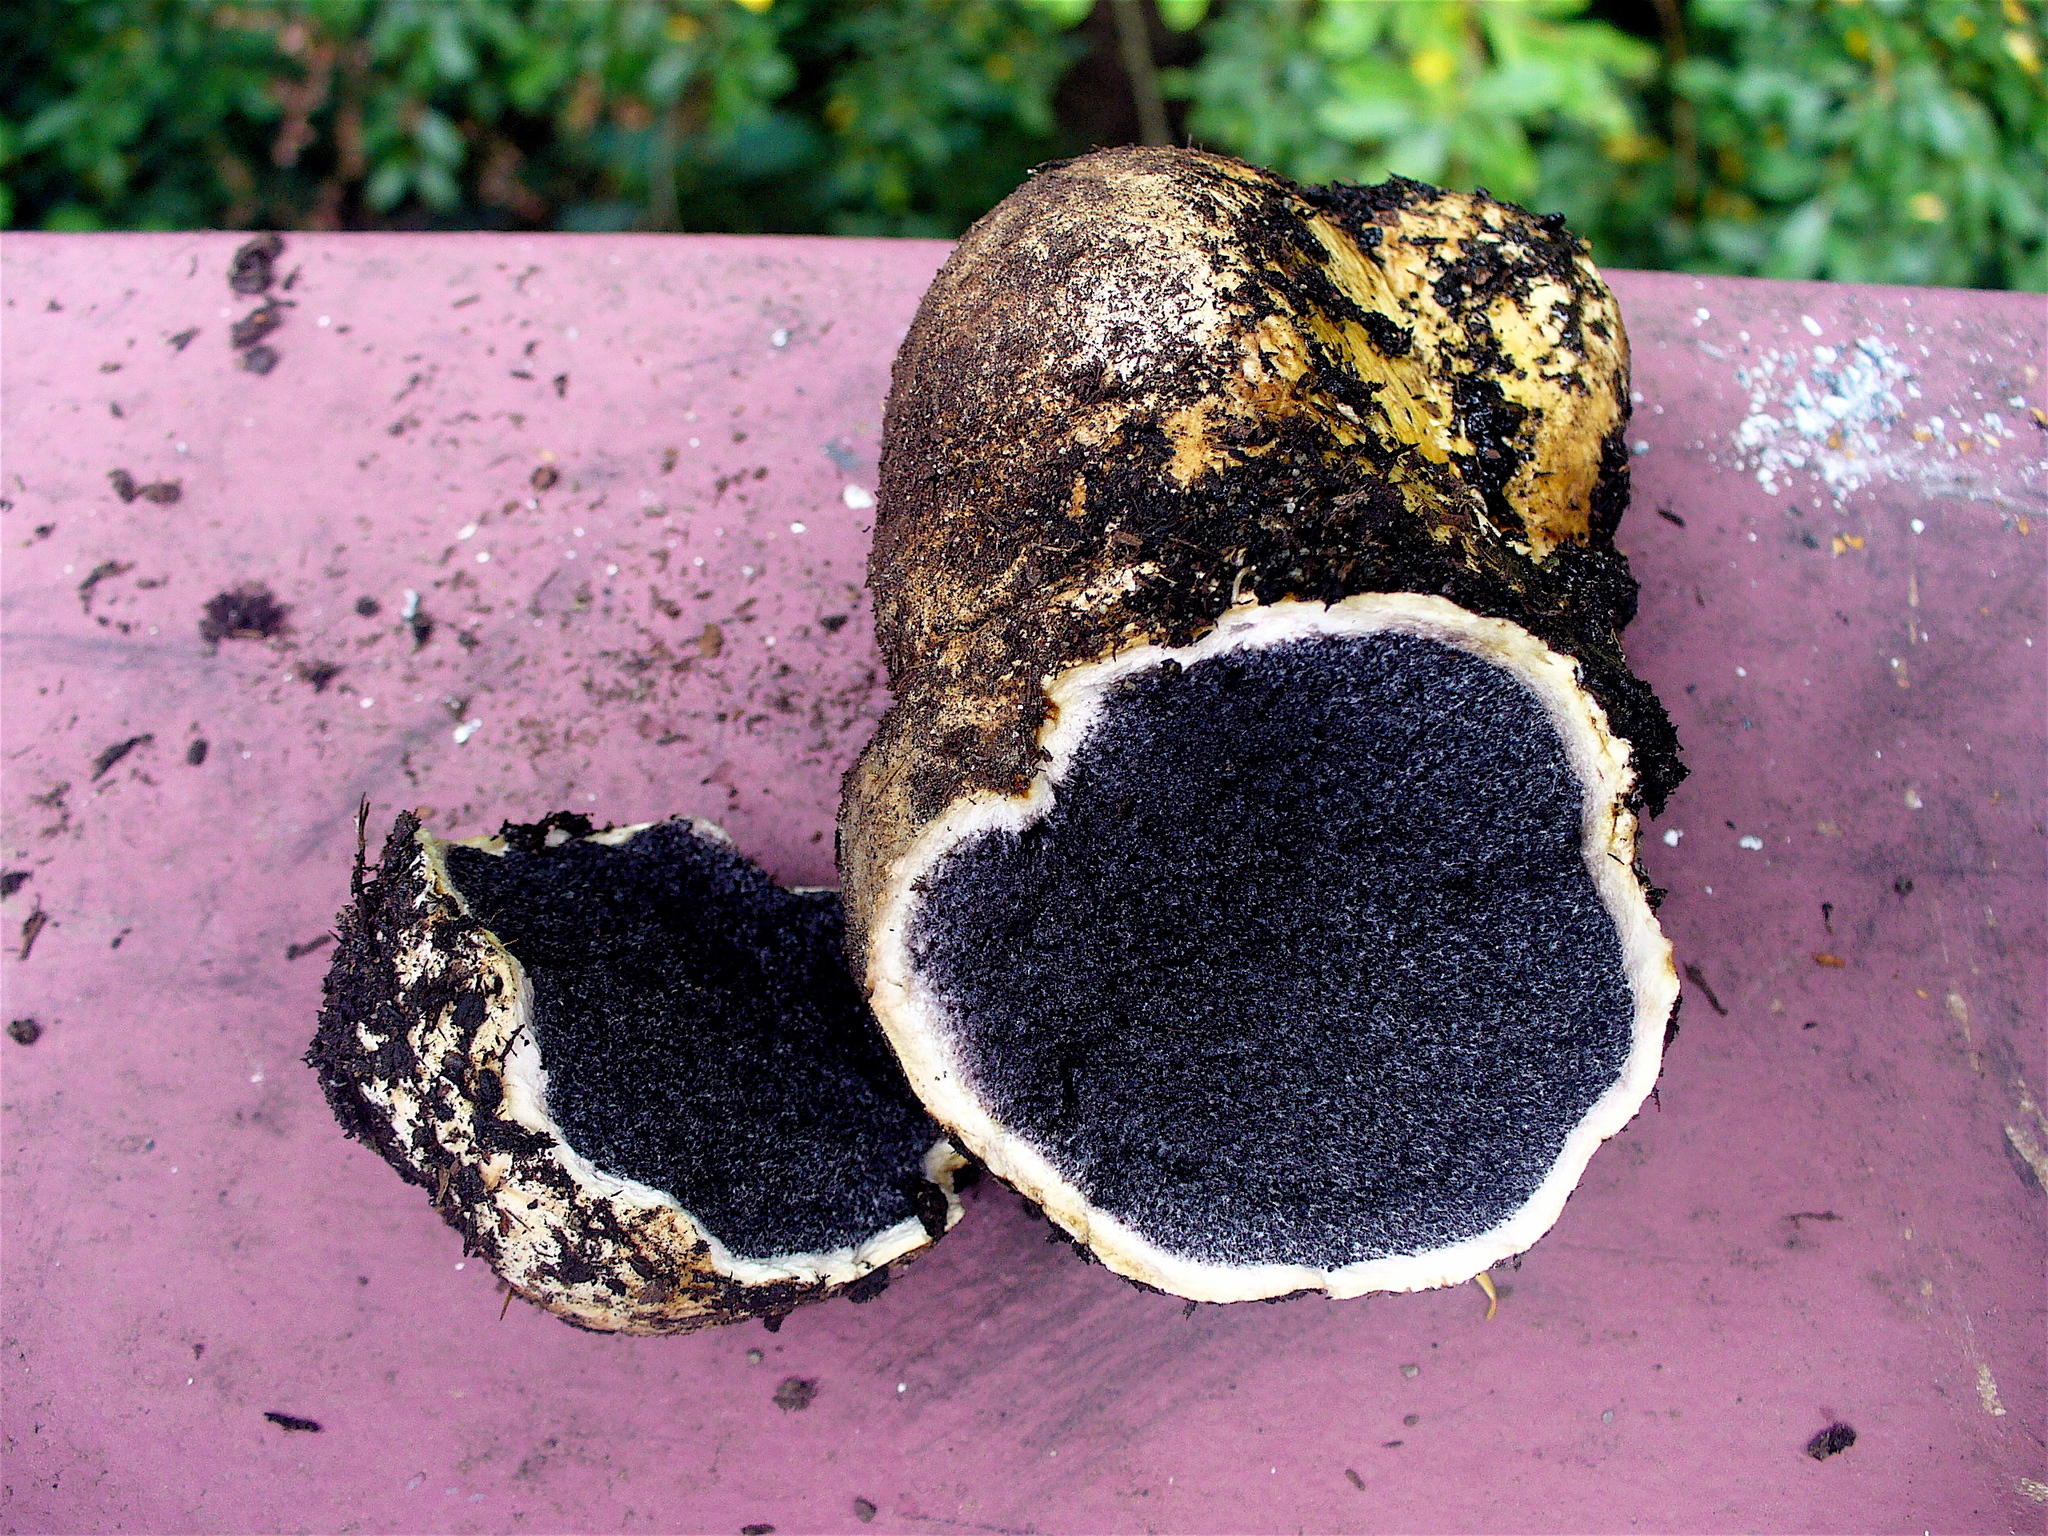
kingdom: Fungi
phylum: Basidiomycota
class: Agaricomycetes
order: Boletales
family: Sclerodermataceae
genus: Scleroderma
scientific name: Scleroderma citrinum
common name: Common earthball
